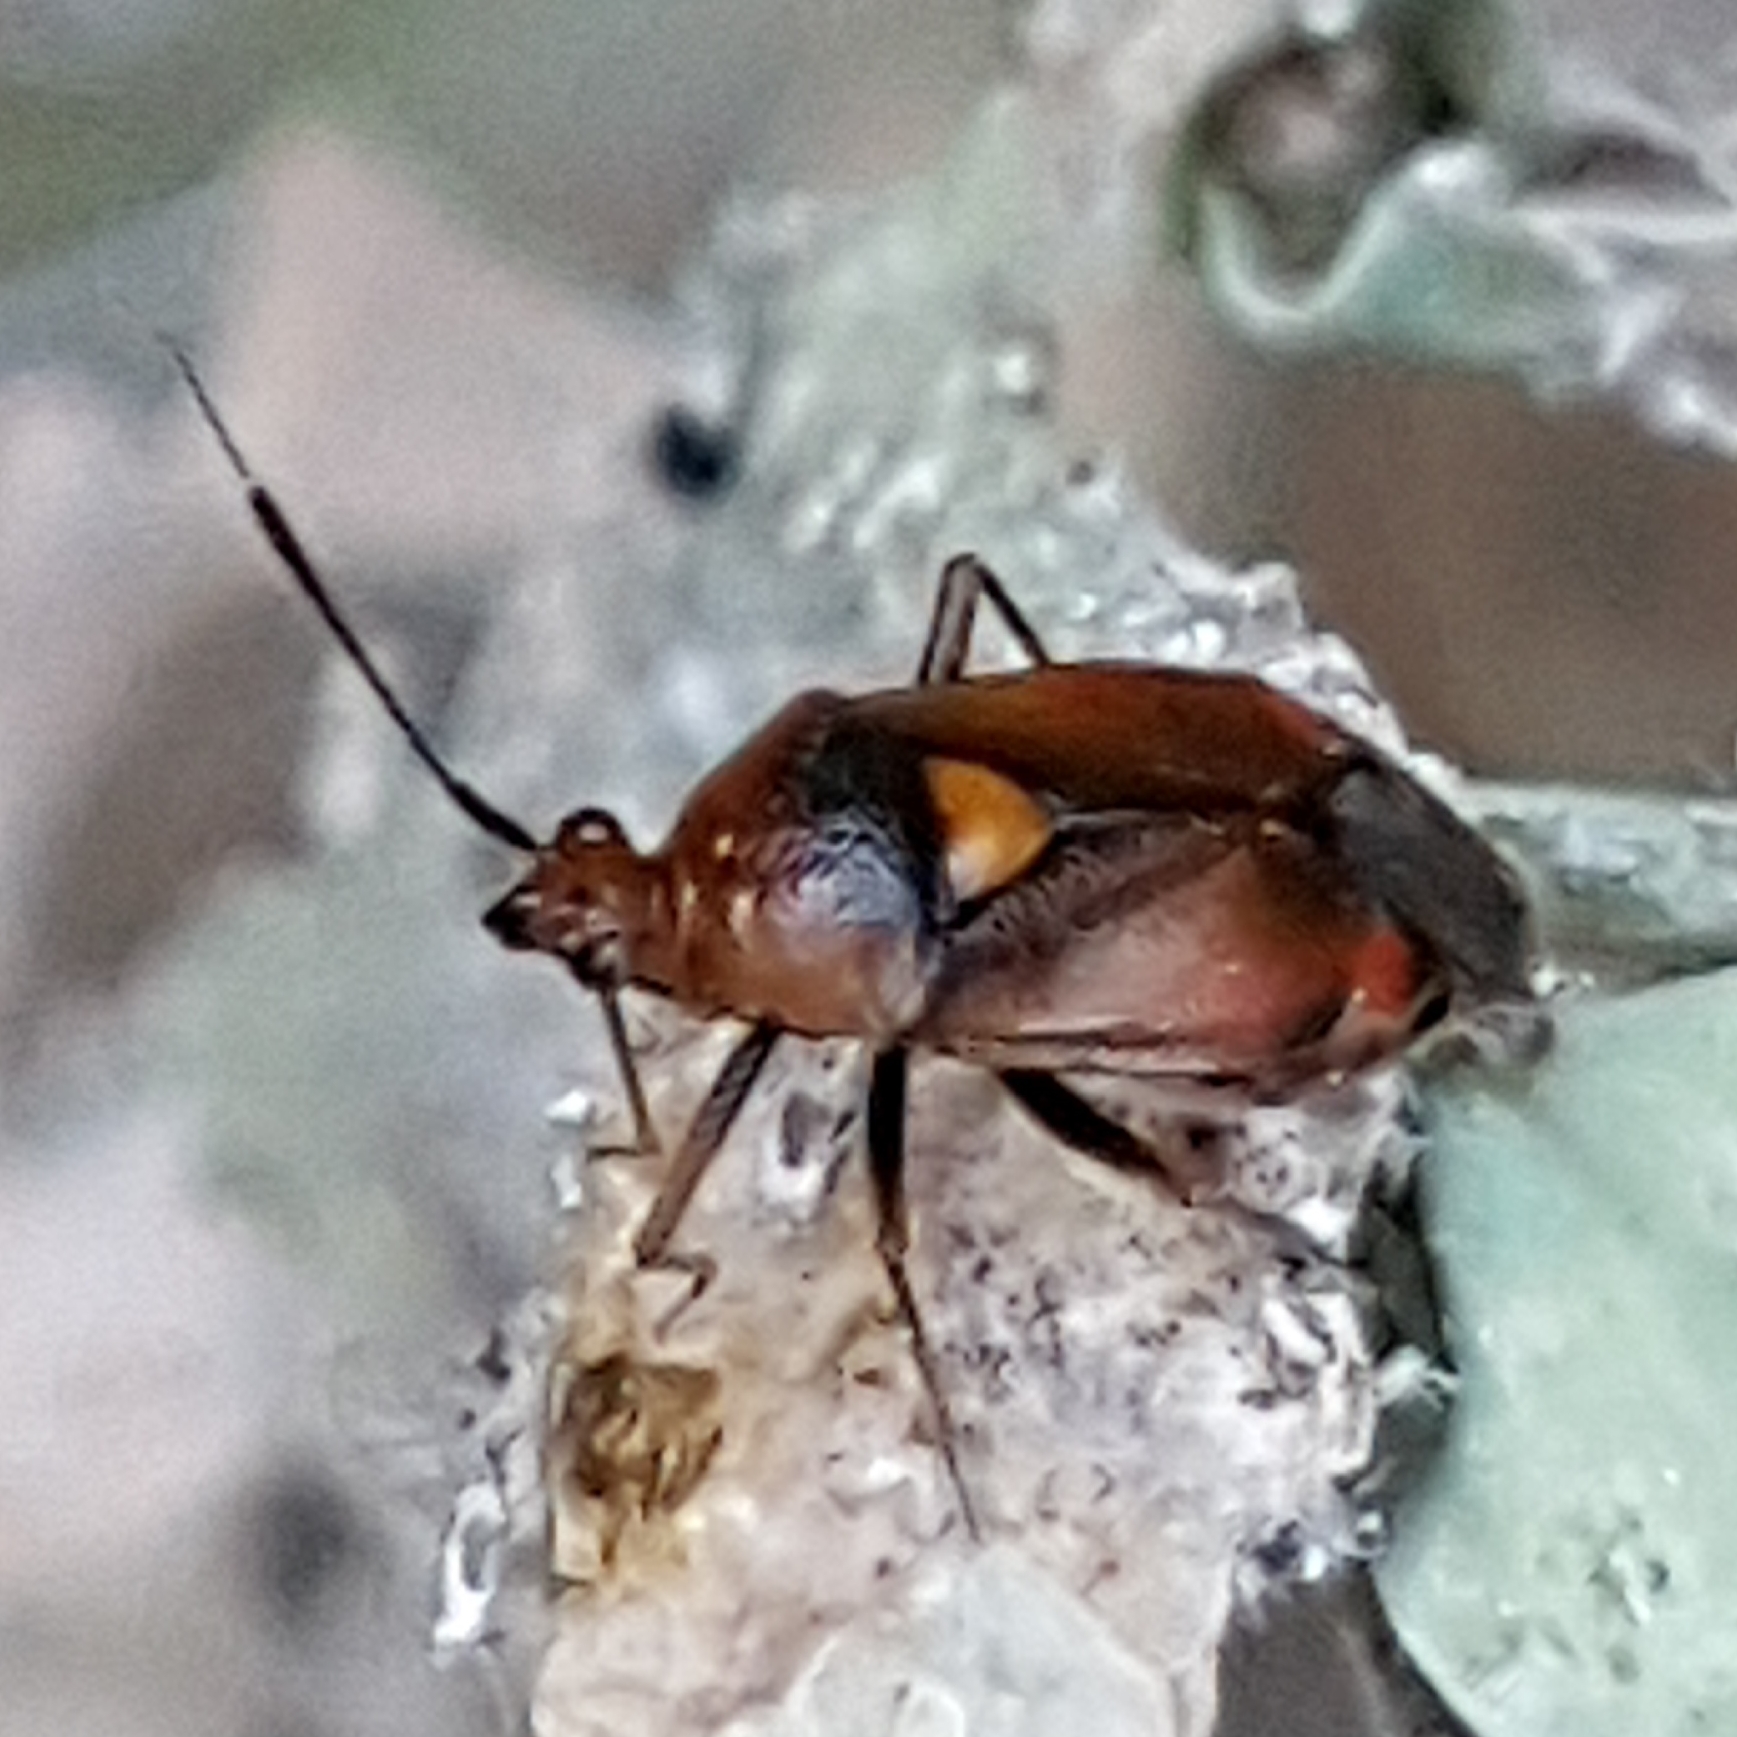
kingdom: Animalia
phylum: Arthropoda
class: Insecta
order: Hemiptera
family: Miridae
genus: Deraeocoris
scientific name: Deraeocoris ruber
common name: Plant bug
